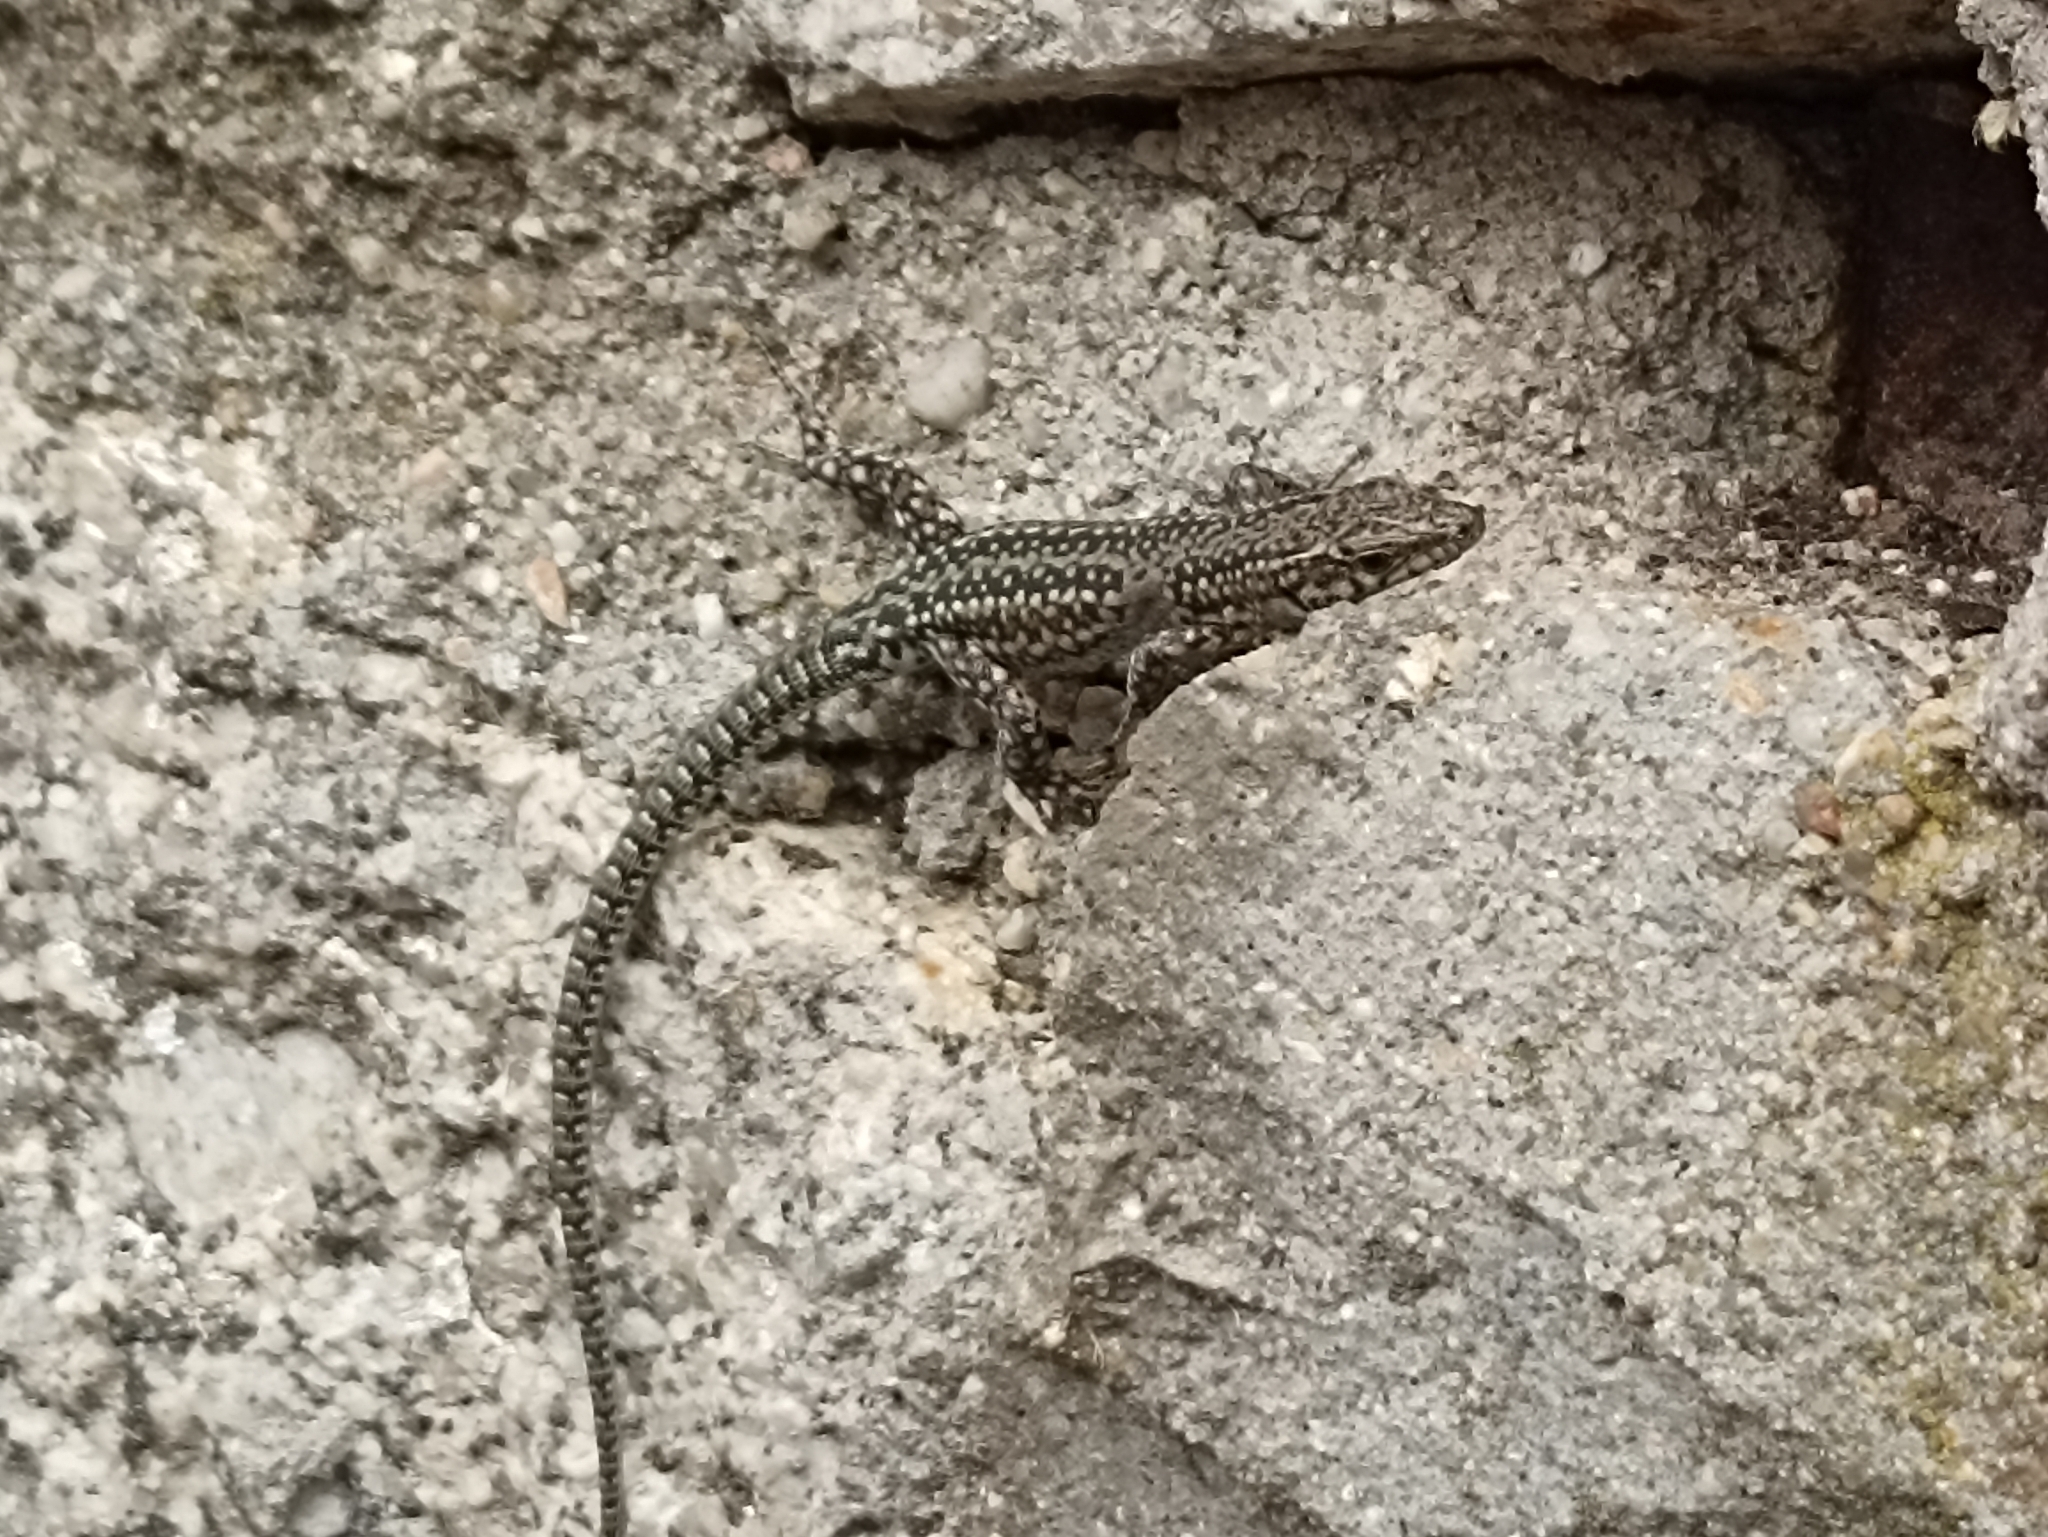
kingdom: Animalia
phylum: Chordata
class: Squamata
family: Lacertidae
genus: Podarcis
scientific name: Podarcis guadarramae
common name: Guadarrama wall lizard
